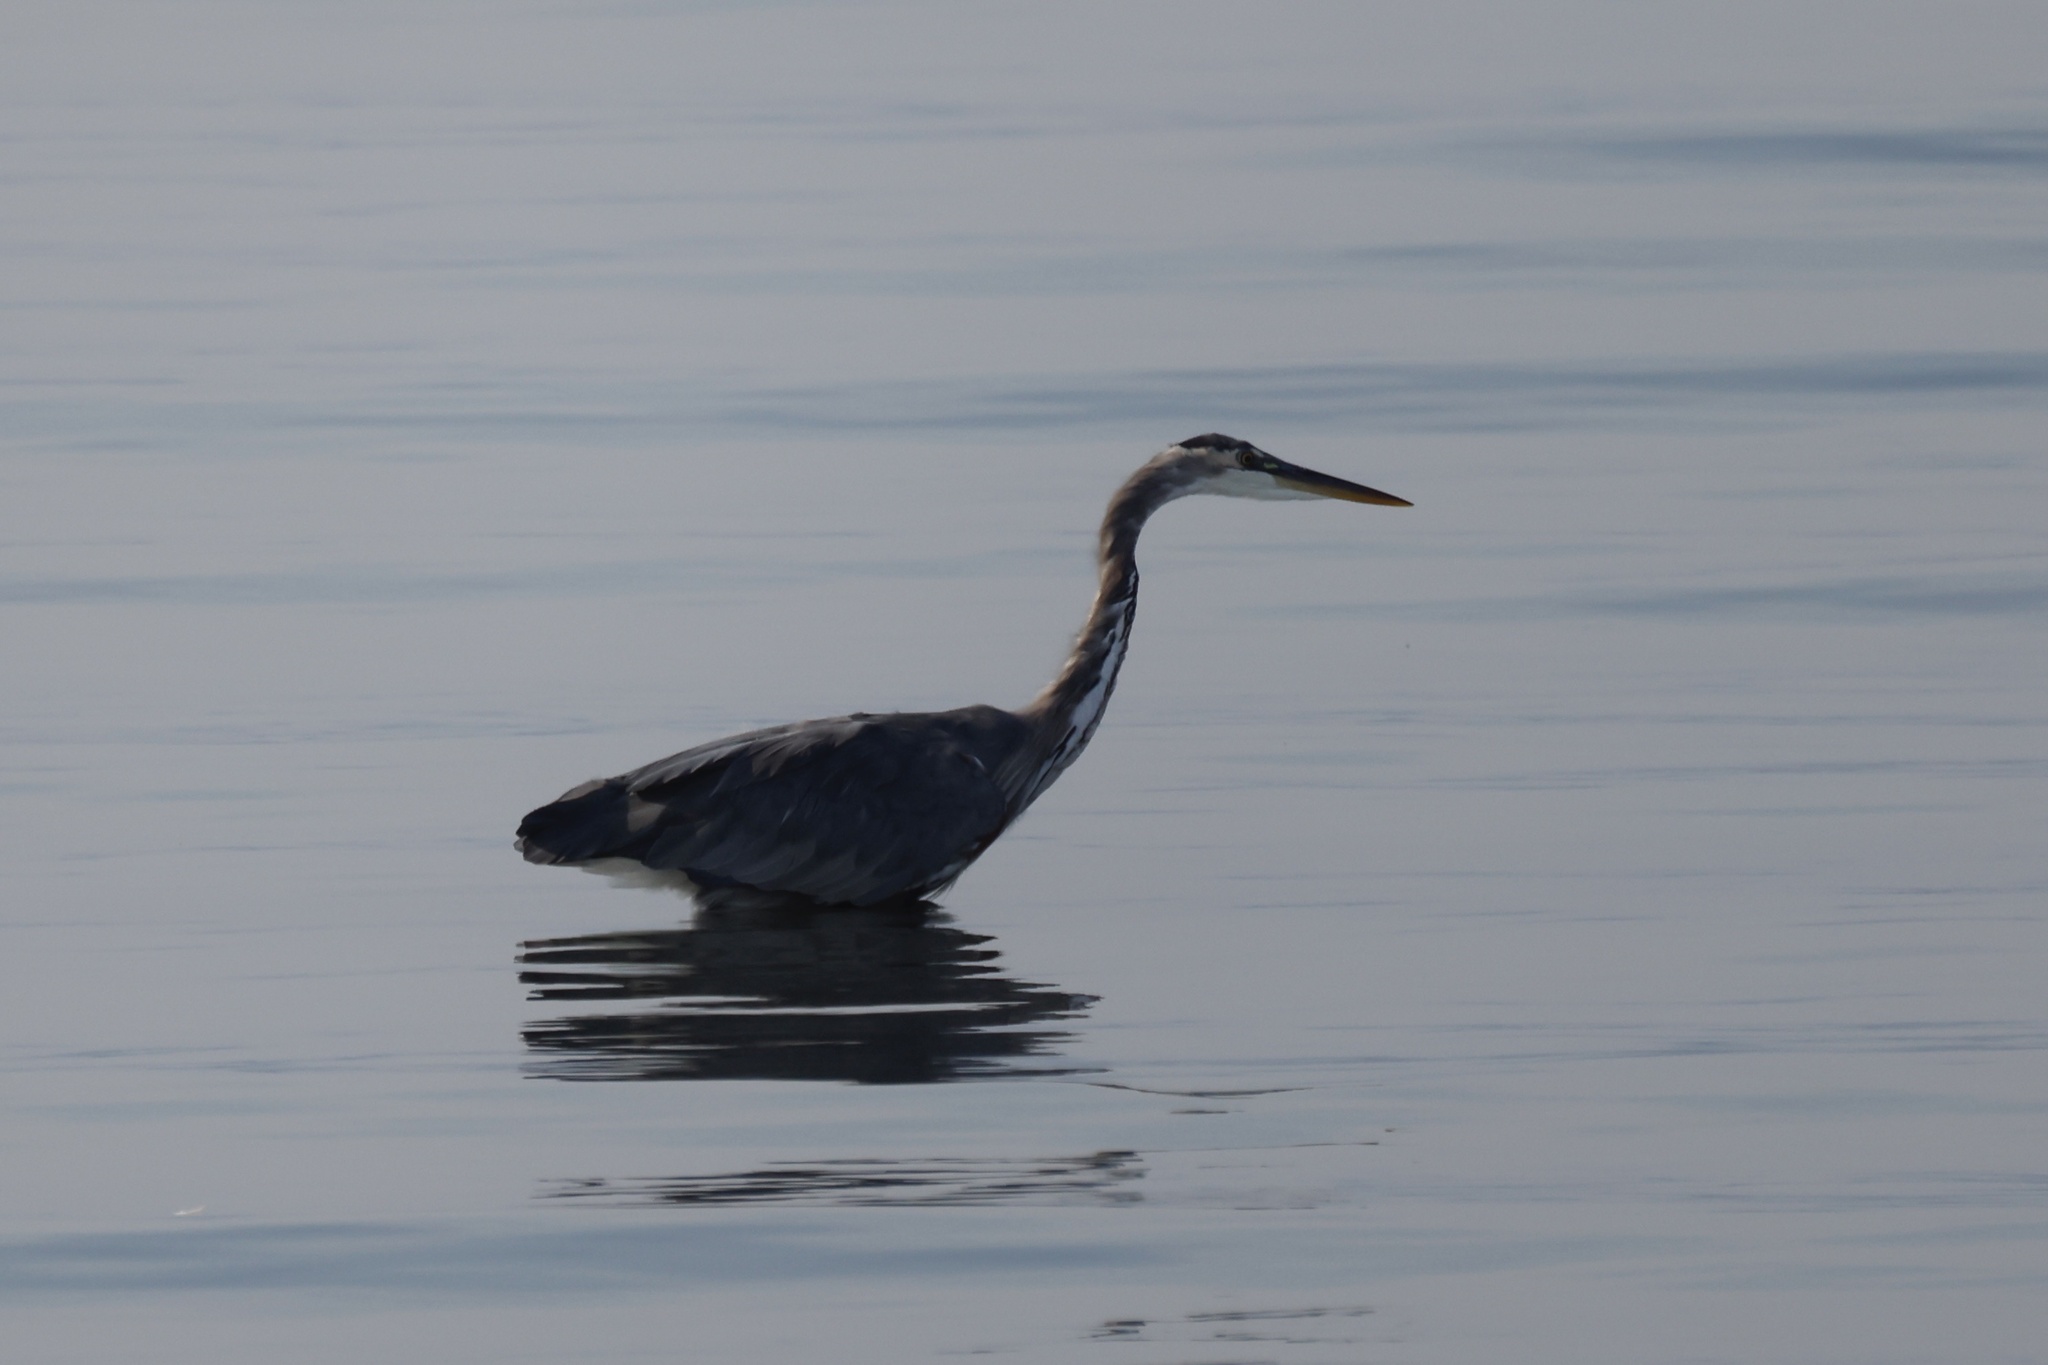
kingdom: Animalia
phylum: Chordata
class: Aves
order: Pelecaniformes
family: Ardeidae
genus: Ardea
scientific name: Ardea herodias
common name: Great blue heron
